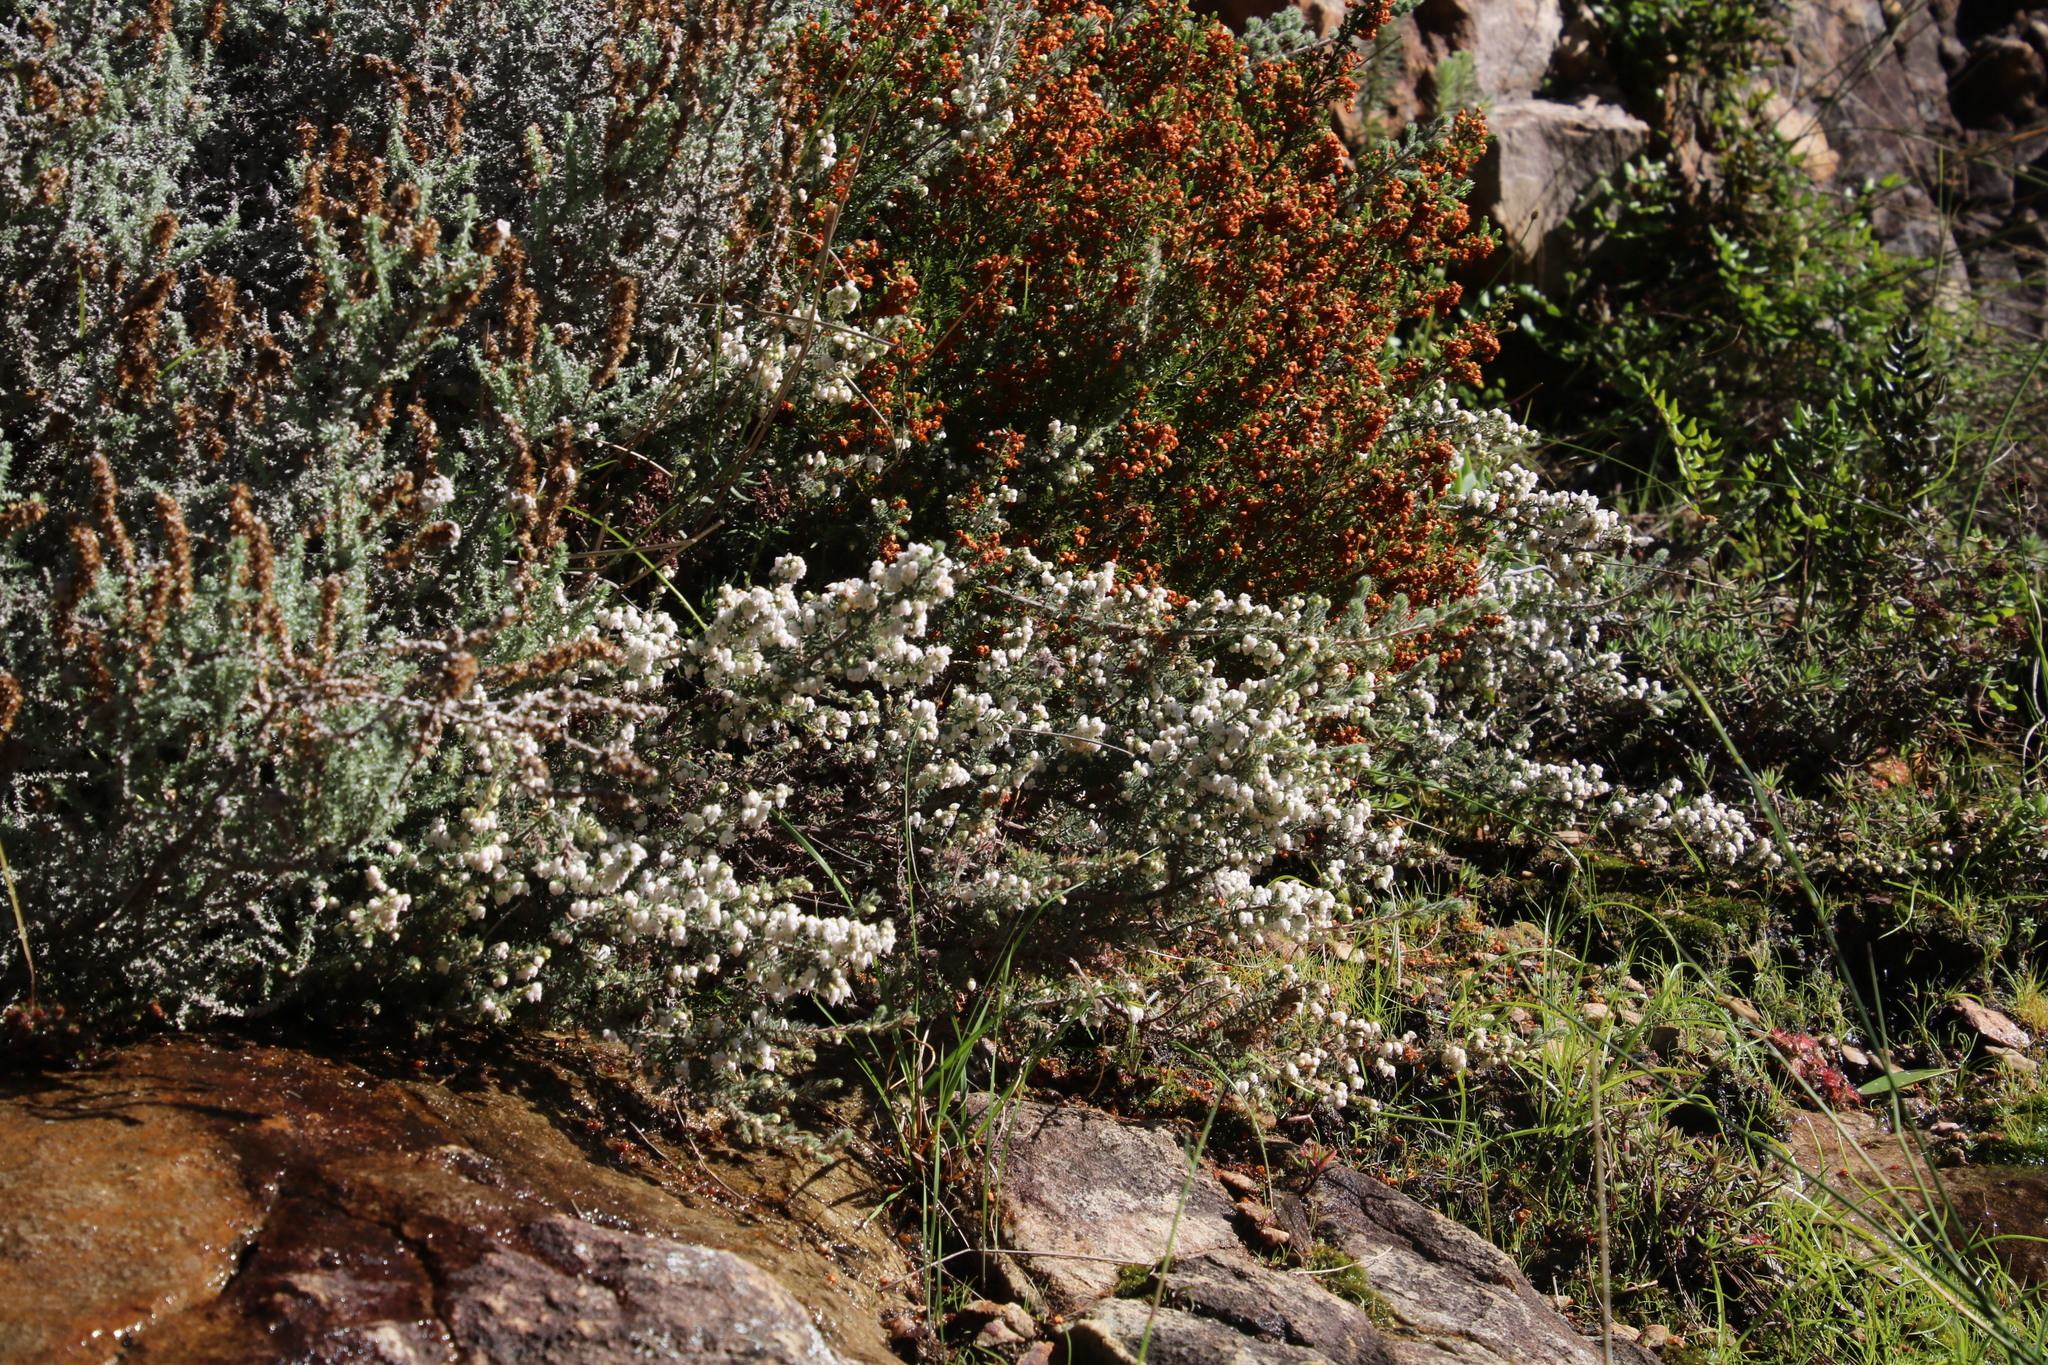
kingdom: Plantae
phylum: Tracheophyta
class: Magnoliopsida
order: Ericales
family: Ericaceae
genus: Erica
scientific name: Erica totta
